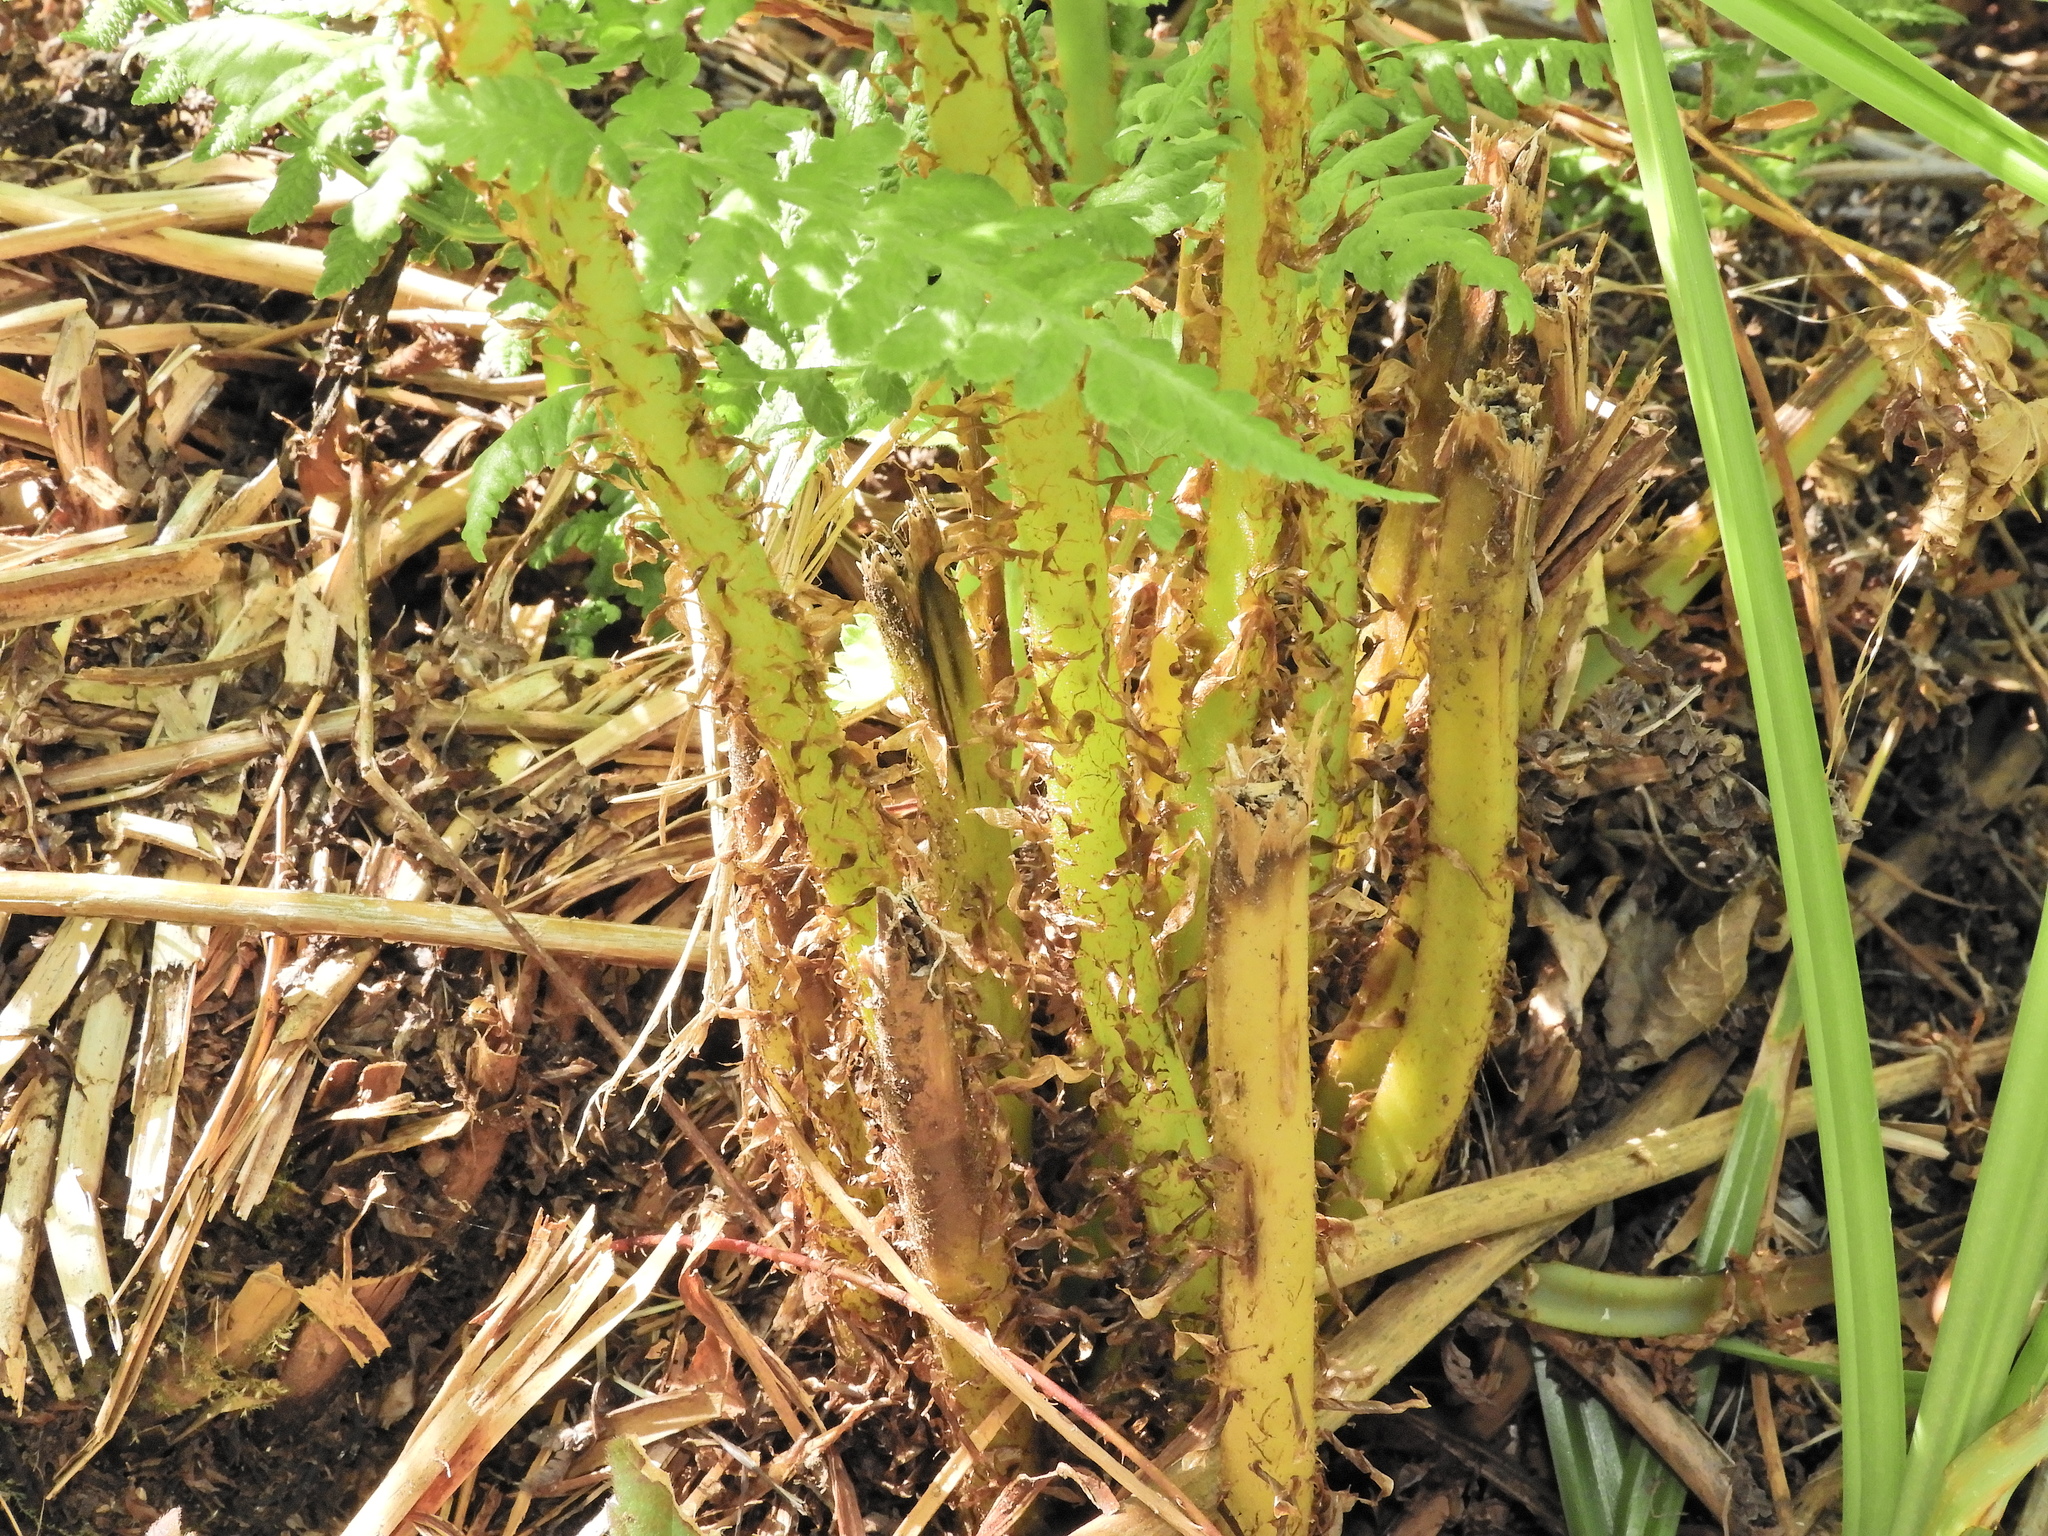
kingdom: Plantae
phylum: Tracheophyta
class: Polypodiopsida
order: Polypodiales
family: Athyriaceae
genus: Athyrium
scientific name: Athyrium filix-femina
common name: Lady fern
